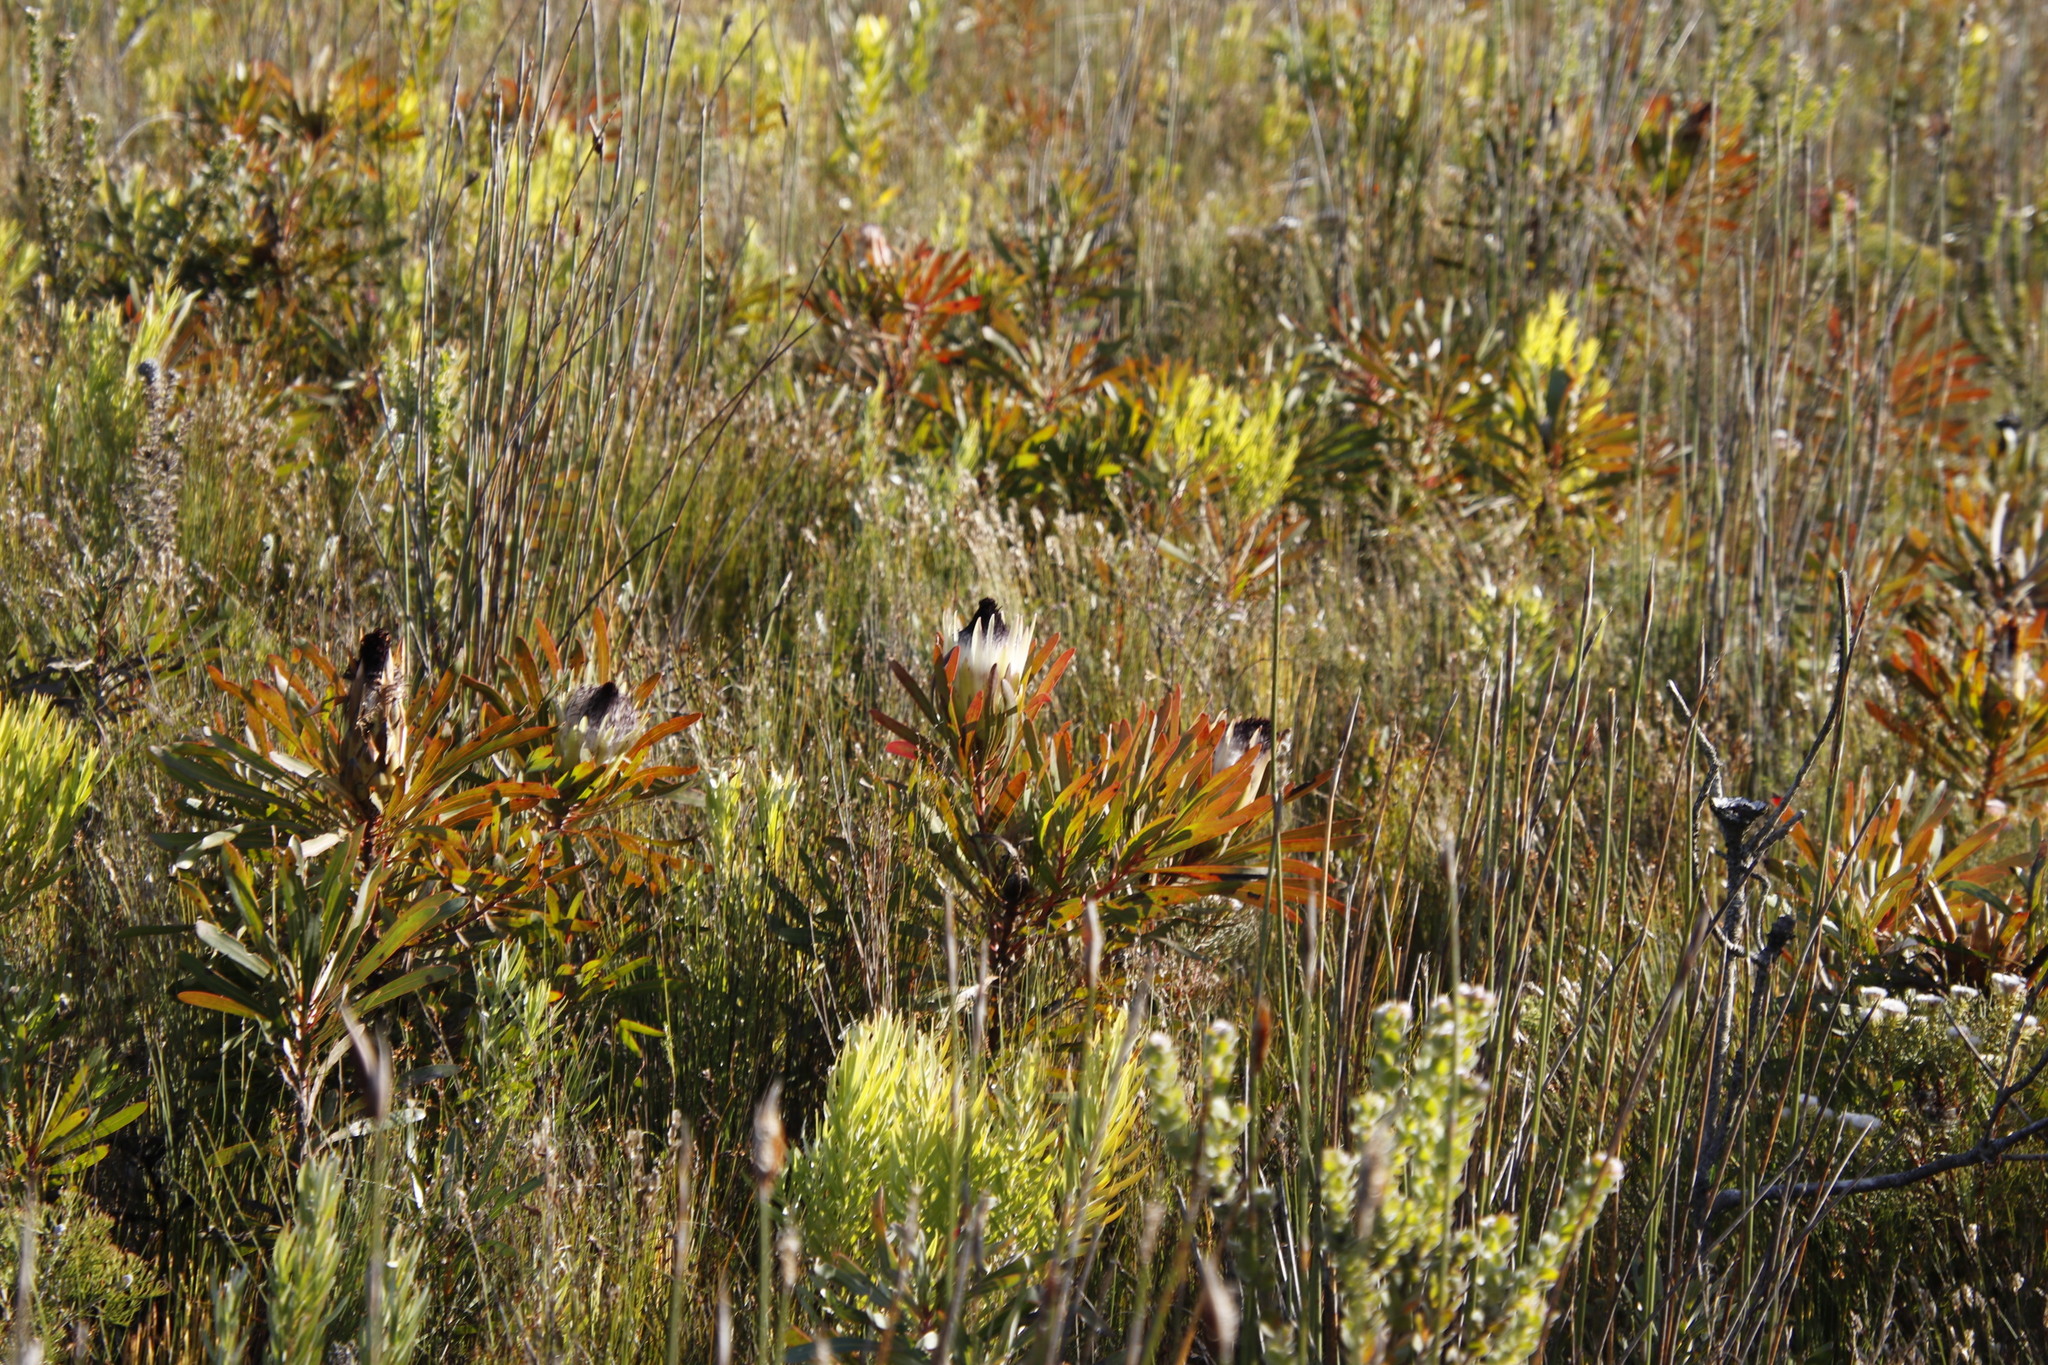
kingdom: Plantae
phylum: Tracheophyta
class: Magnoliopsida
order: Proteales
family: Proteaceae
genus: Protea
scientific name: Protea longifolia
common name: Long-leaf sugarbush
